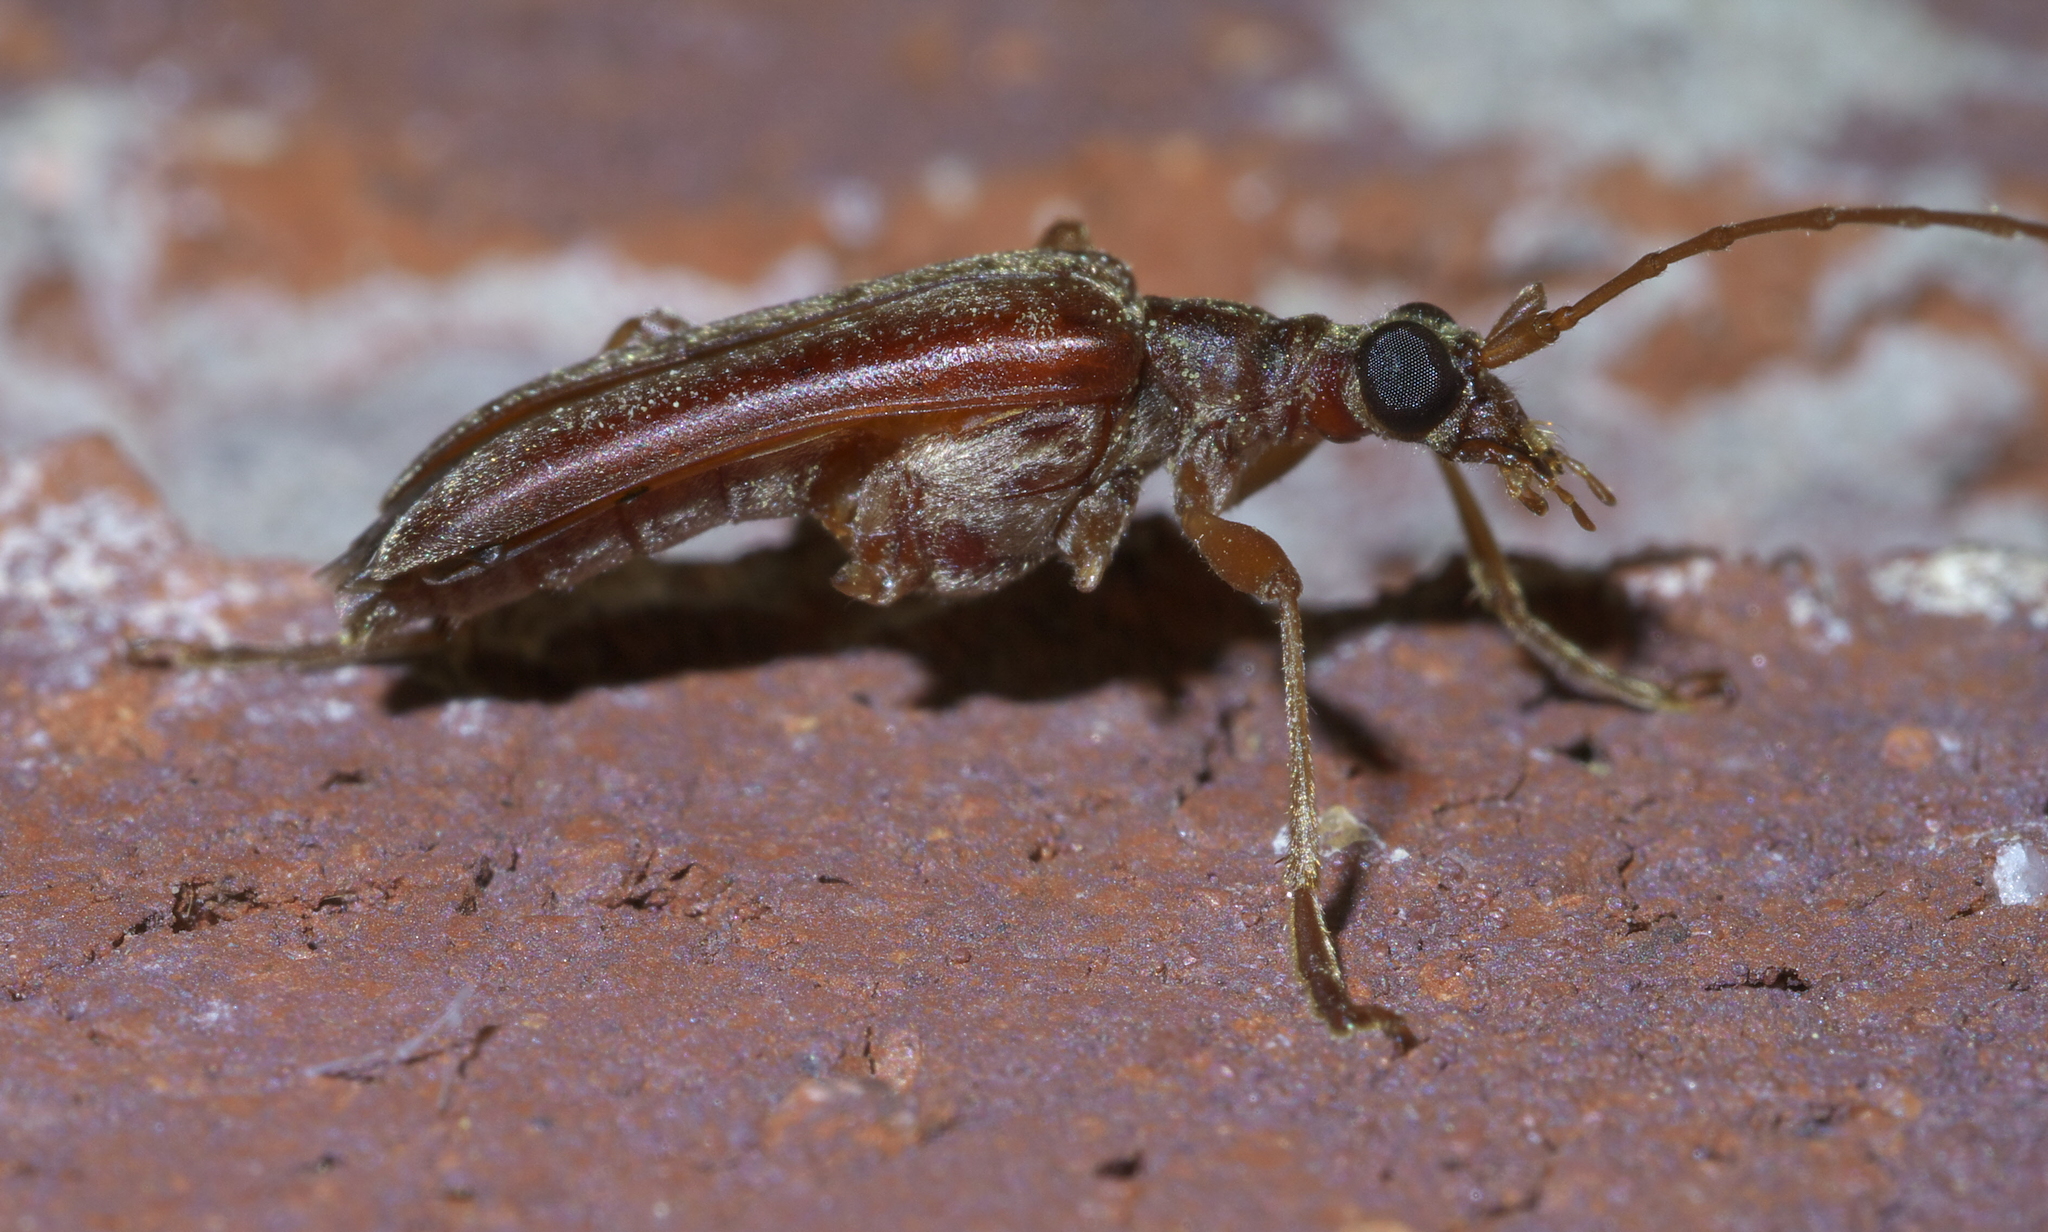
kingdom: Animalia
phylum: Arthropoda
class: Insecta
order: Coleoptera
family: Cerambycidae
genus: Stenocorus
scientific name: Stenocorus cinnamopterus
